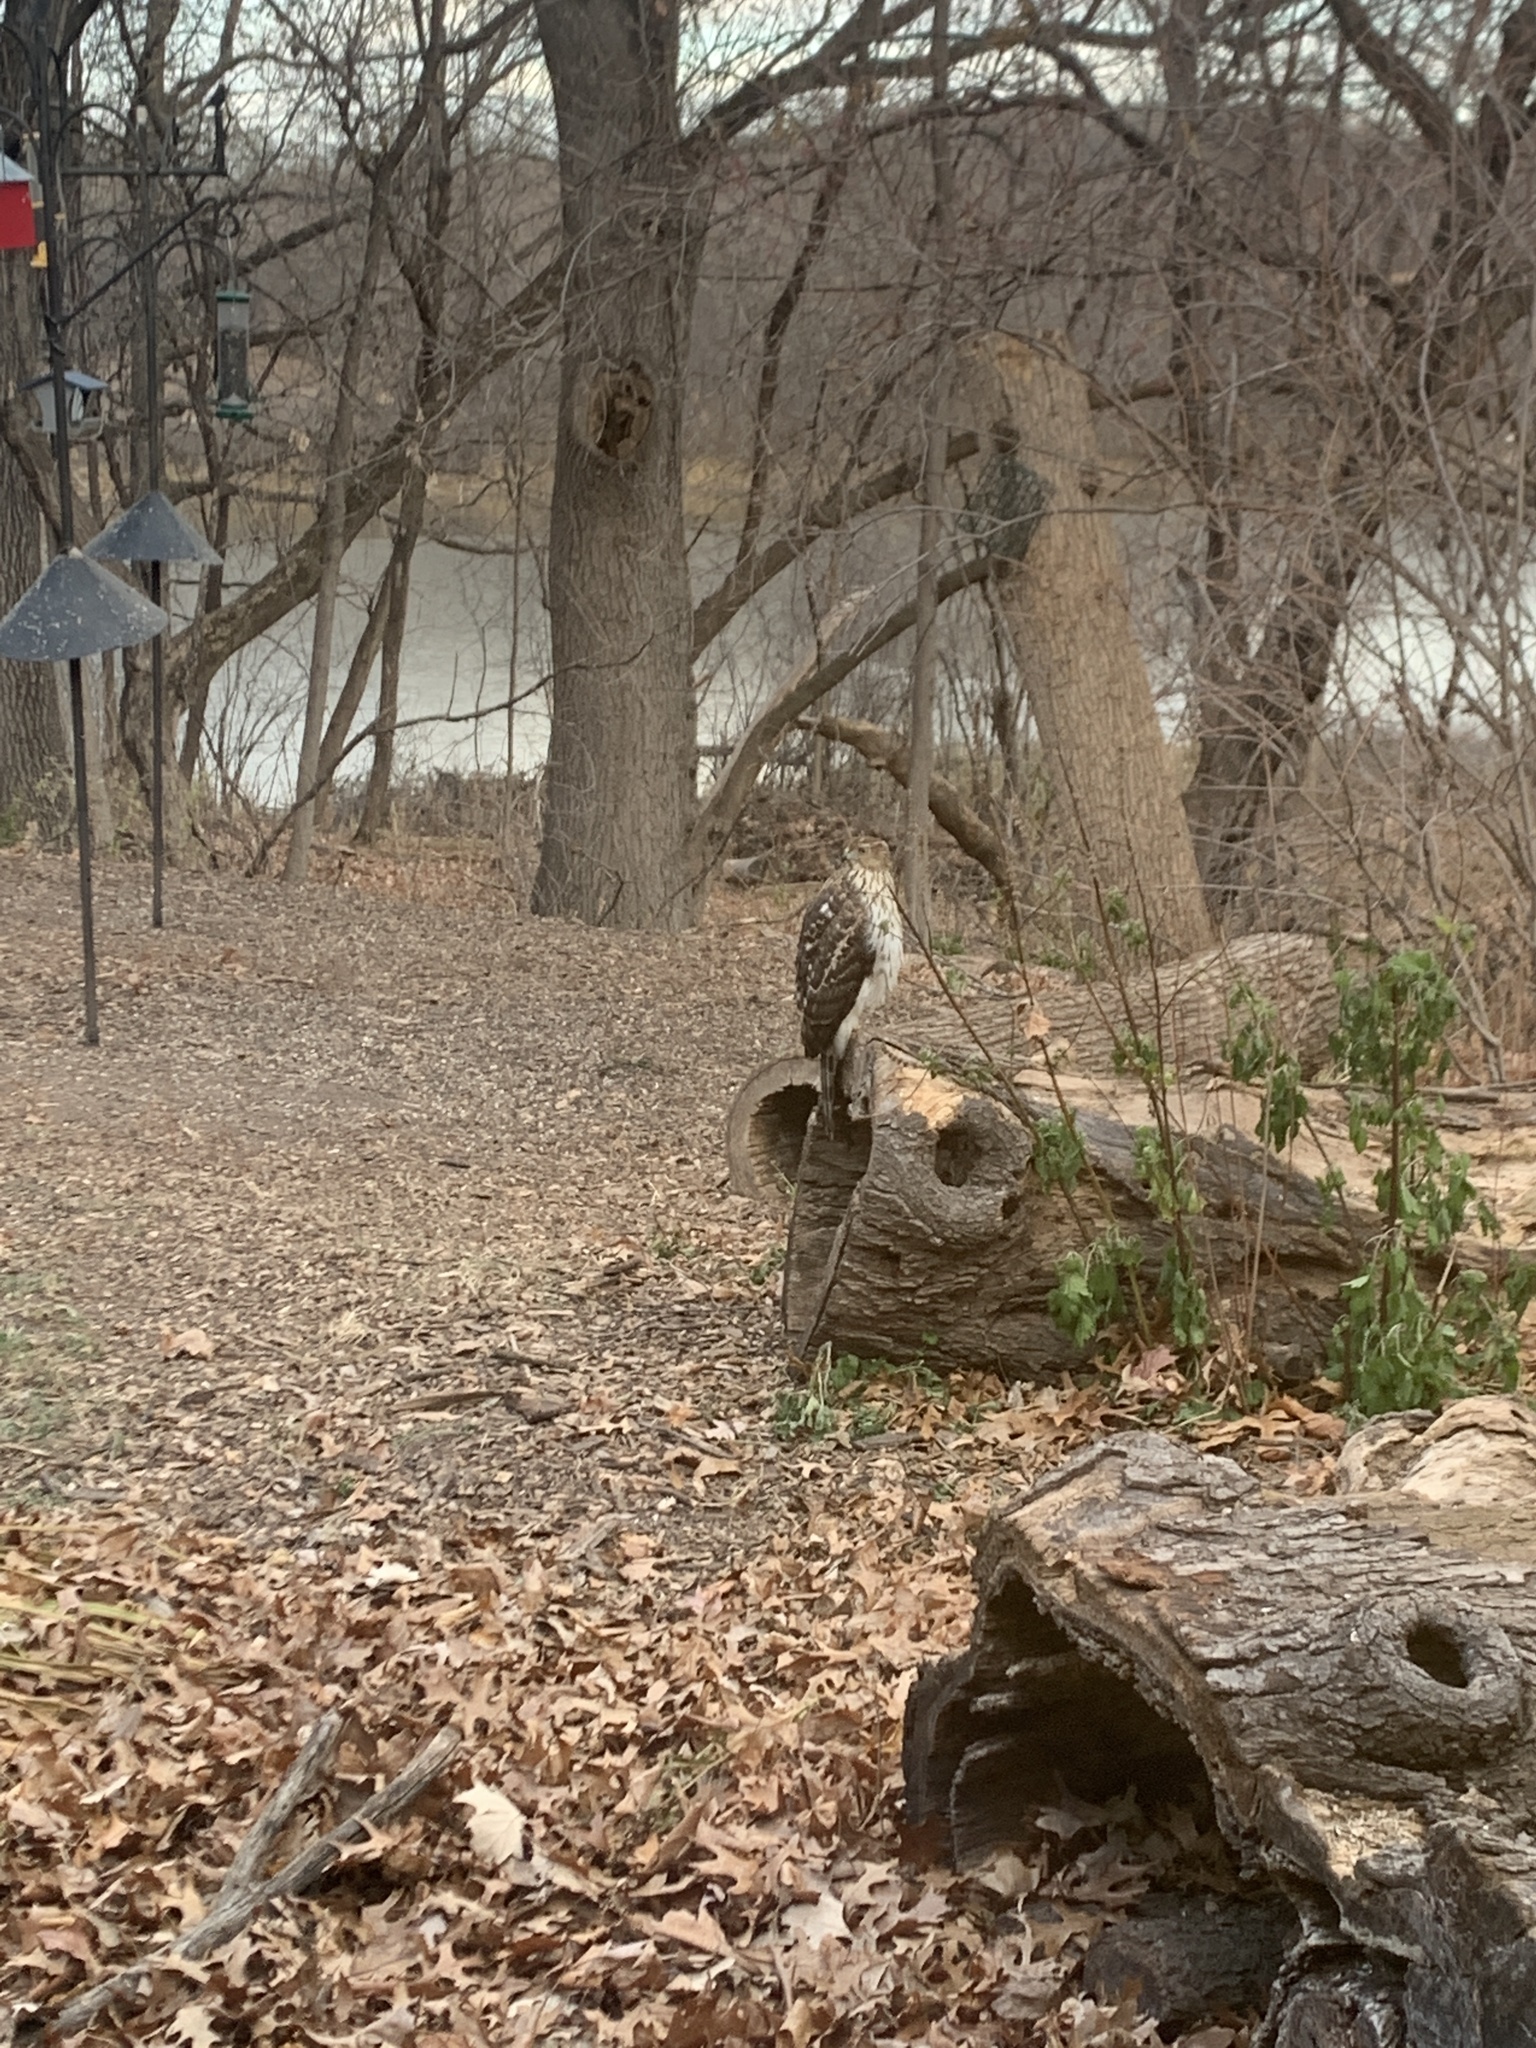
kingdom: Animalia
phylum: Chordata
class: Aves
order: Accipitriformes
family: Accipitridae
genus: Accipiter
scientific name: Accipiter cooperii
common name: Cooper's hawk
